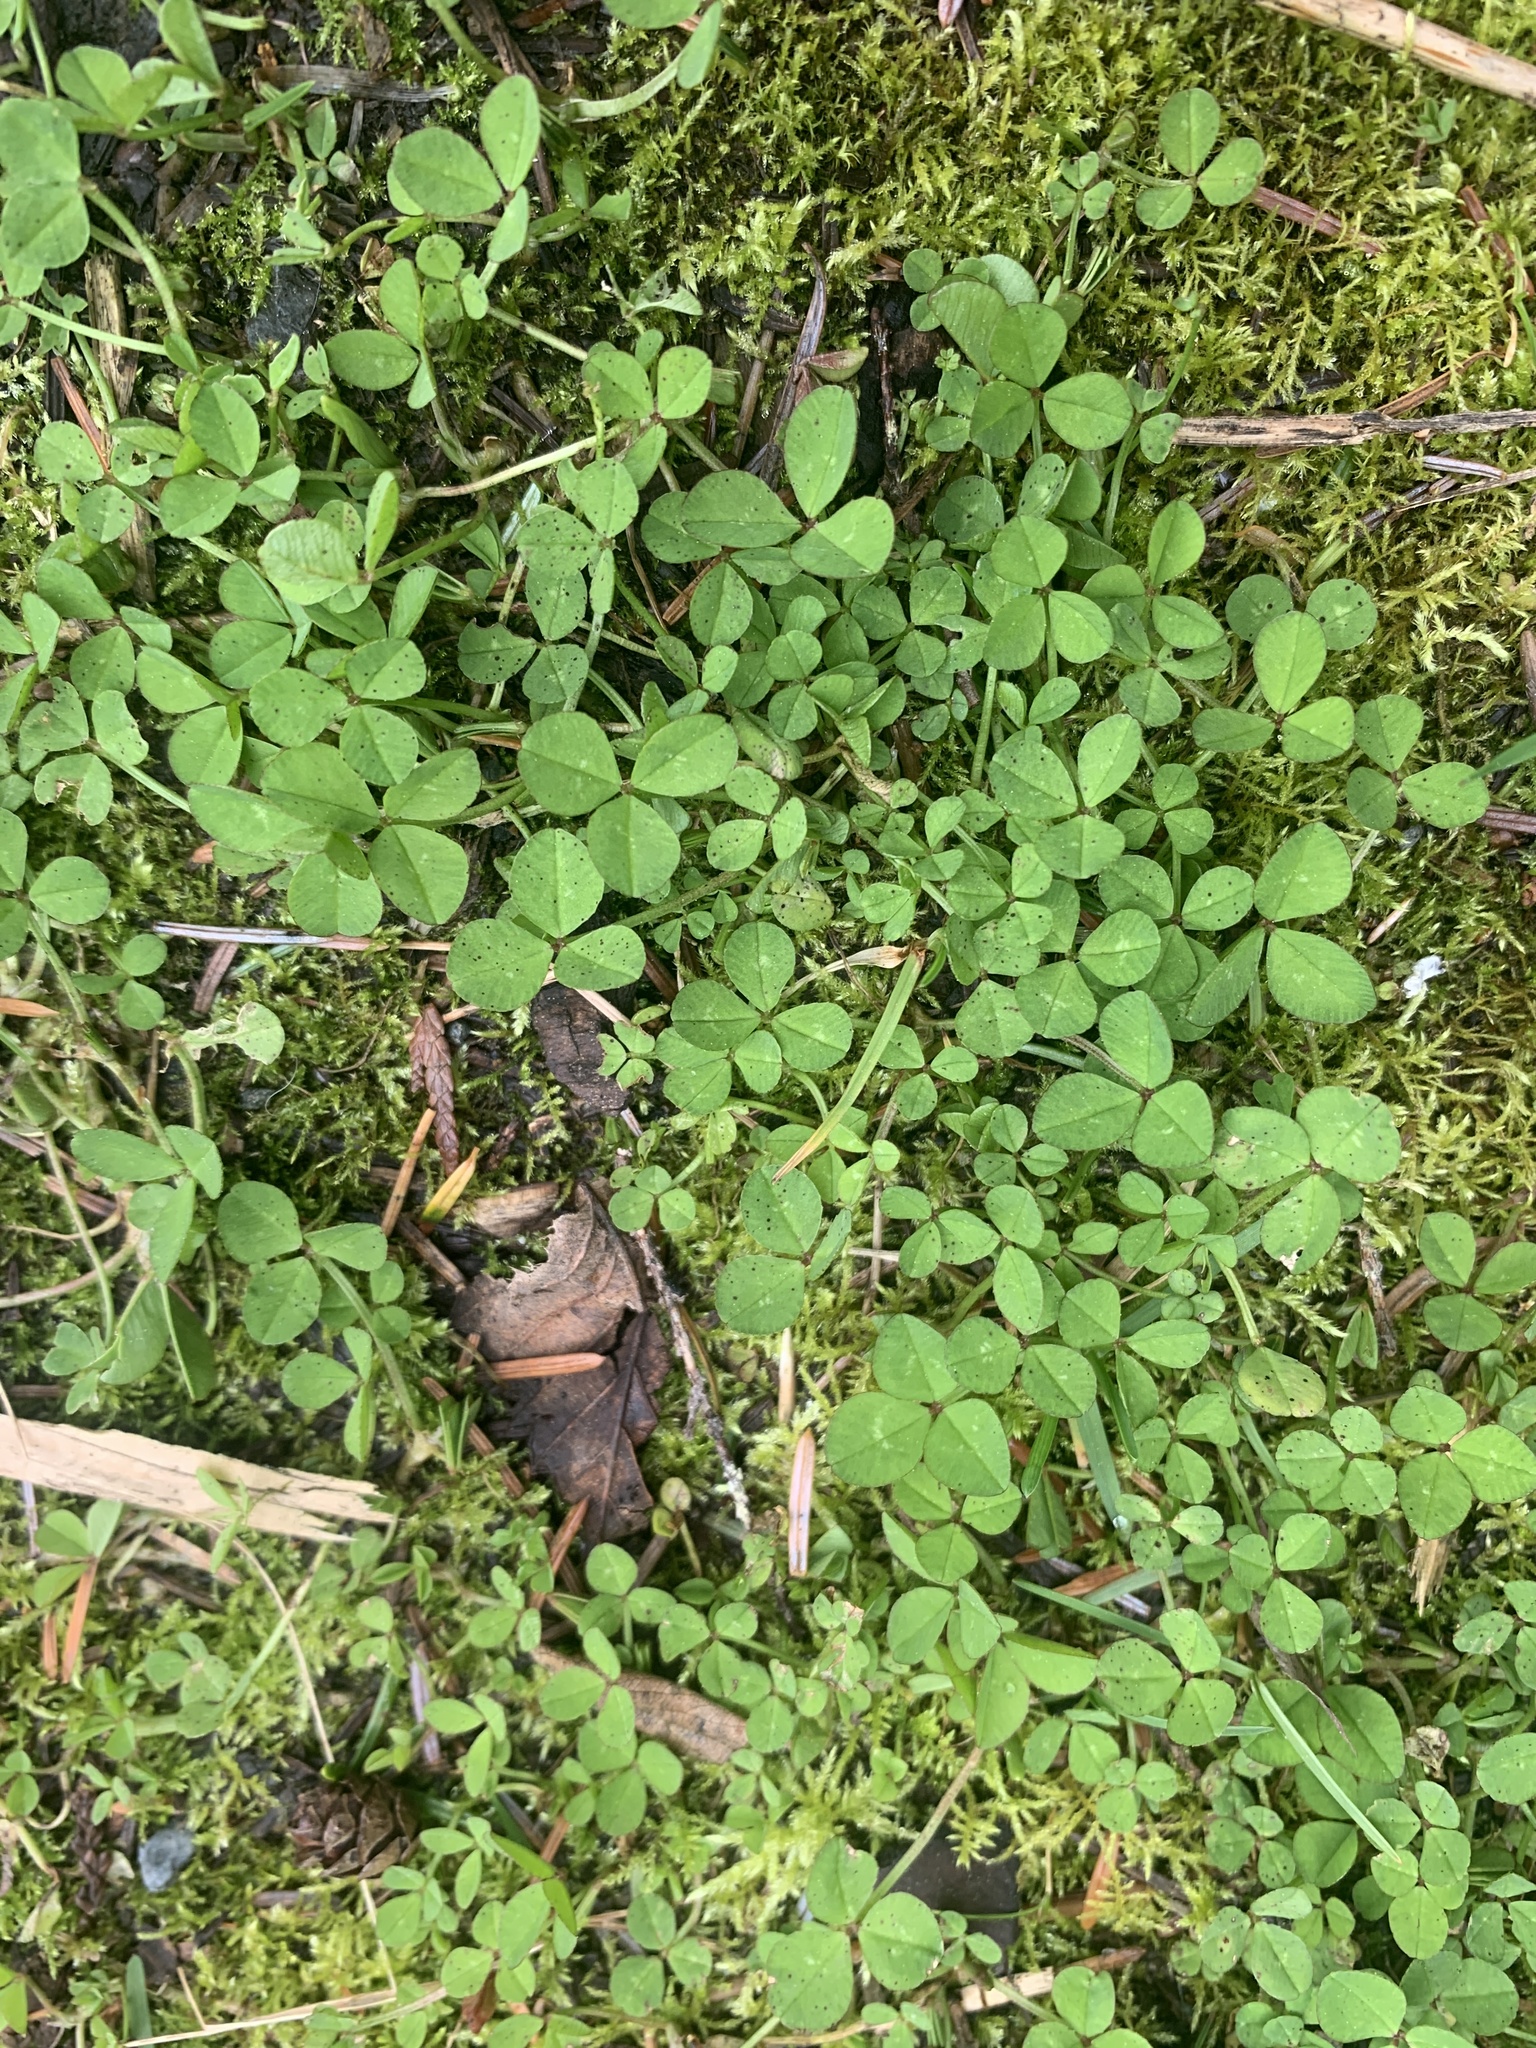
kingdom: Plantae
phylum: Tracheophyta
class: Magnoliopsida
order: Fabales
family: Fabaceae
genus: Trifolium
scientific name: Trifolium repens
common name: White clover
